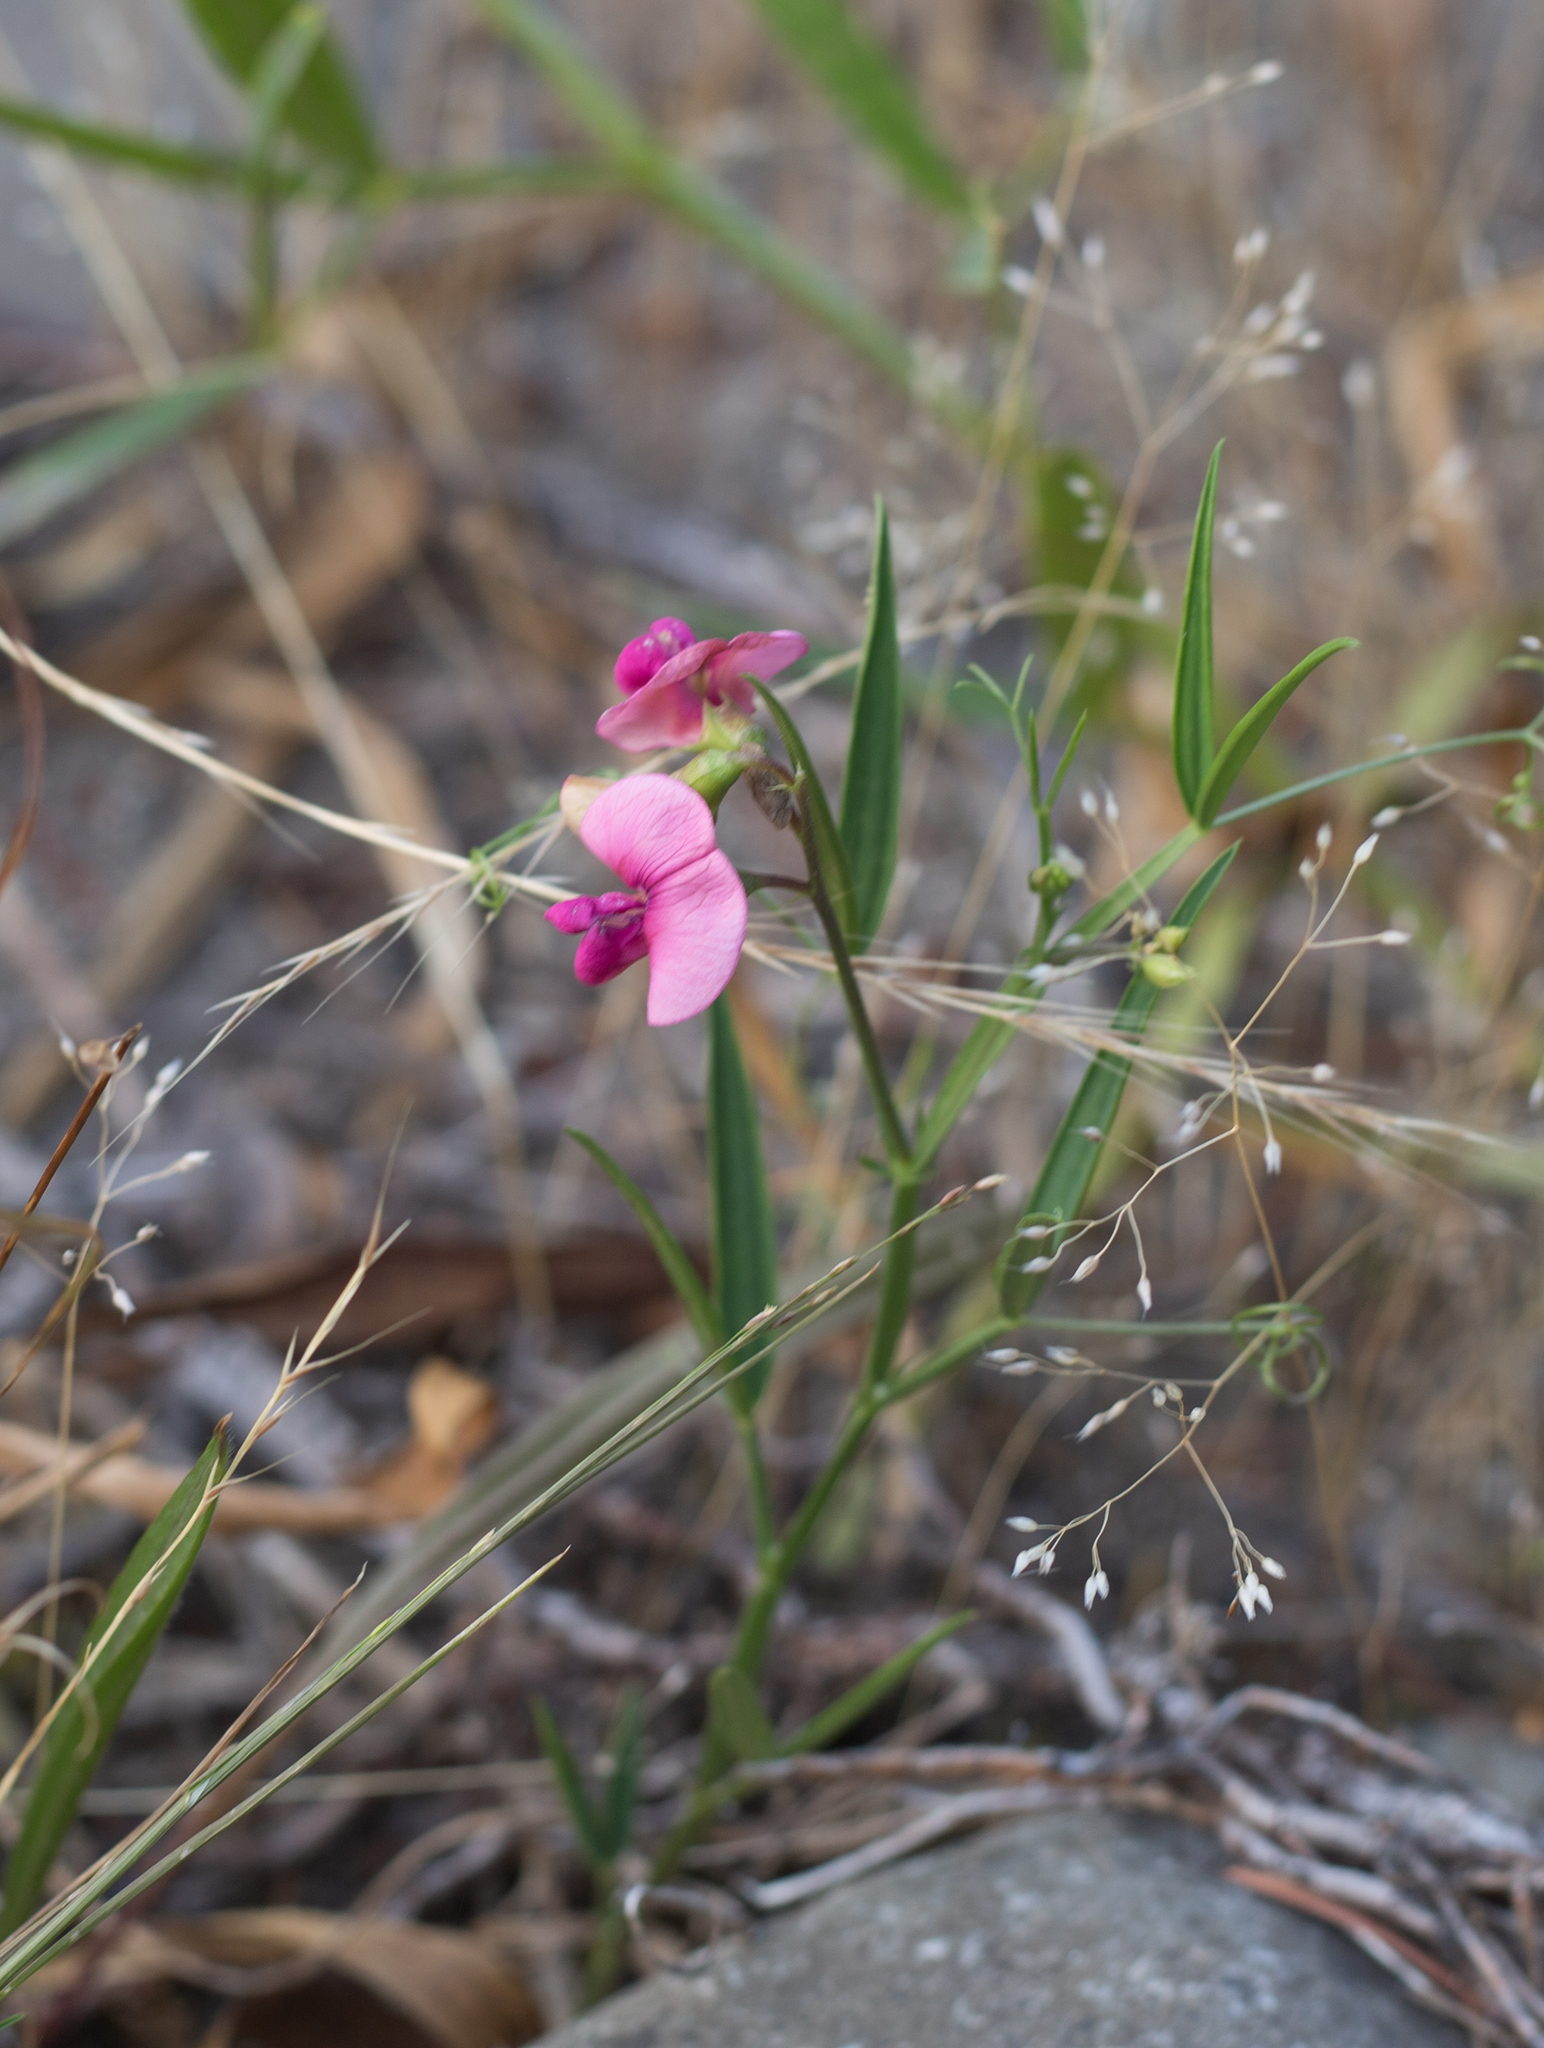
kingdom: Plantae
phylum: Tracheophyta
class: Magnoliopsida
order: Fabales
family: Fabaceae
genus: Lathyrus
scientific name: Lathyrus sylvestris
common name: Flat pea
